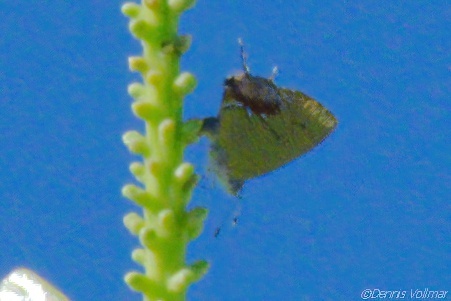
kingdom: Animalia
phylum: Arthropoda
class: Insecta
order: Lepidoptera
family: Lycaenidae
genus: Thecla
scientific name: Thecla maesites
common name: Verde azul hairstreak
